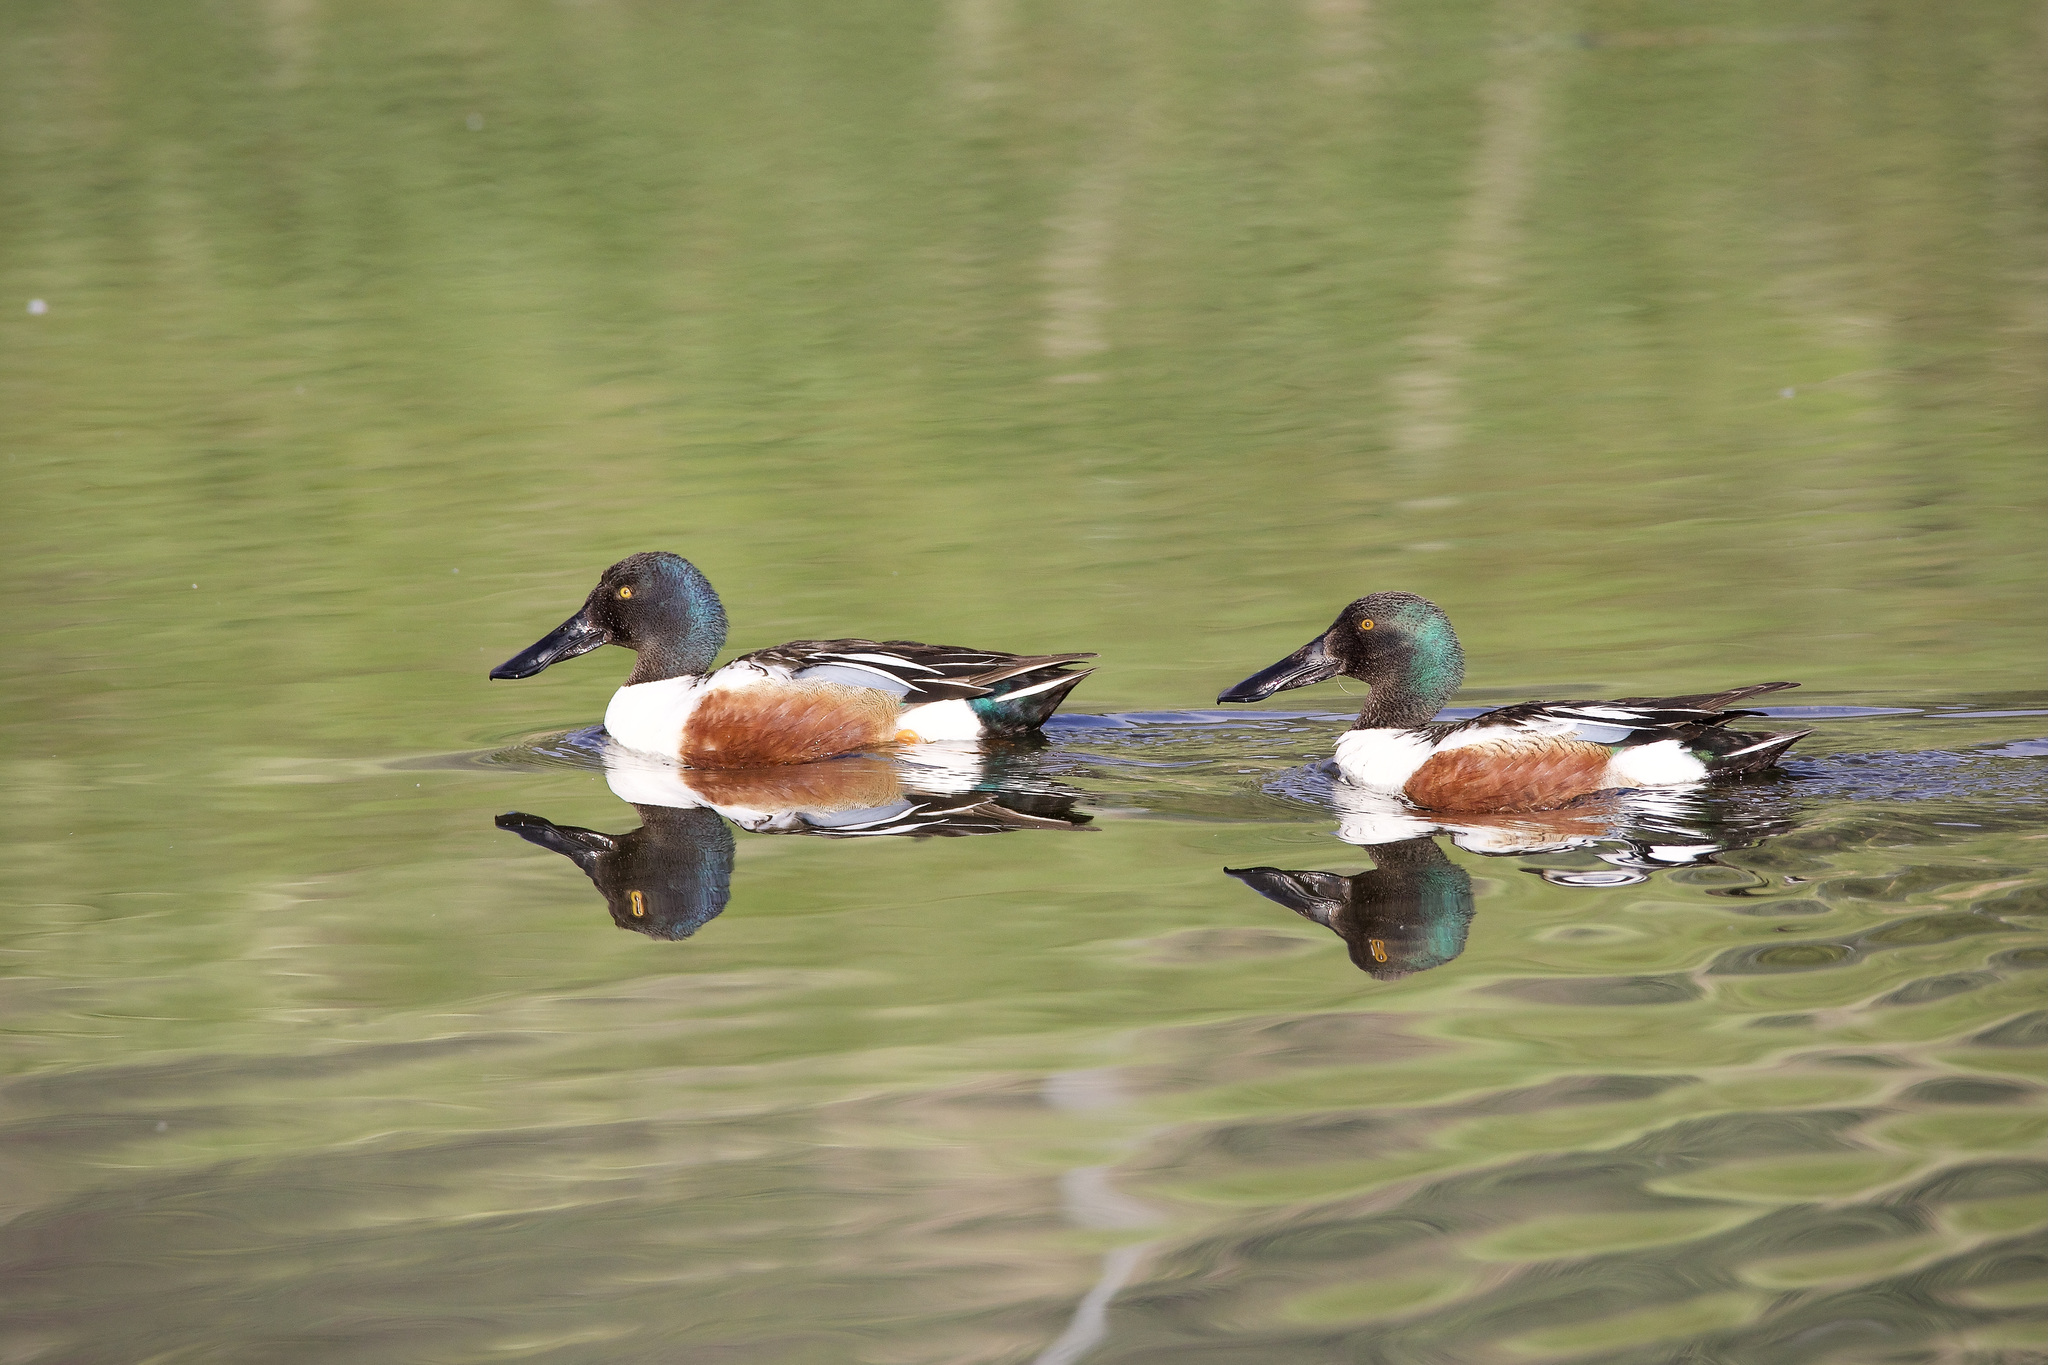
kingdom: Animalia
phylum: Chordata
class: Aves
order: Anseriformes
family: Anatidae
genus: Spatula
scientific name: Spatula clypeata
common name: Northern shoveler
